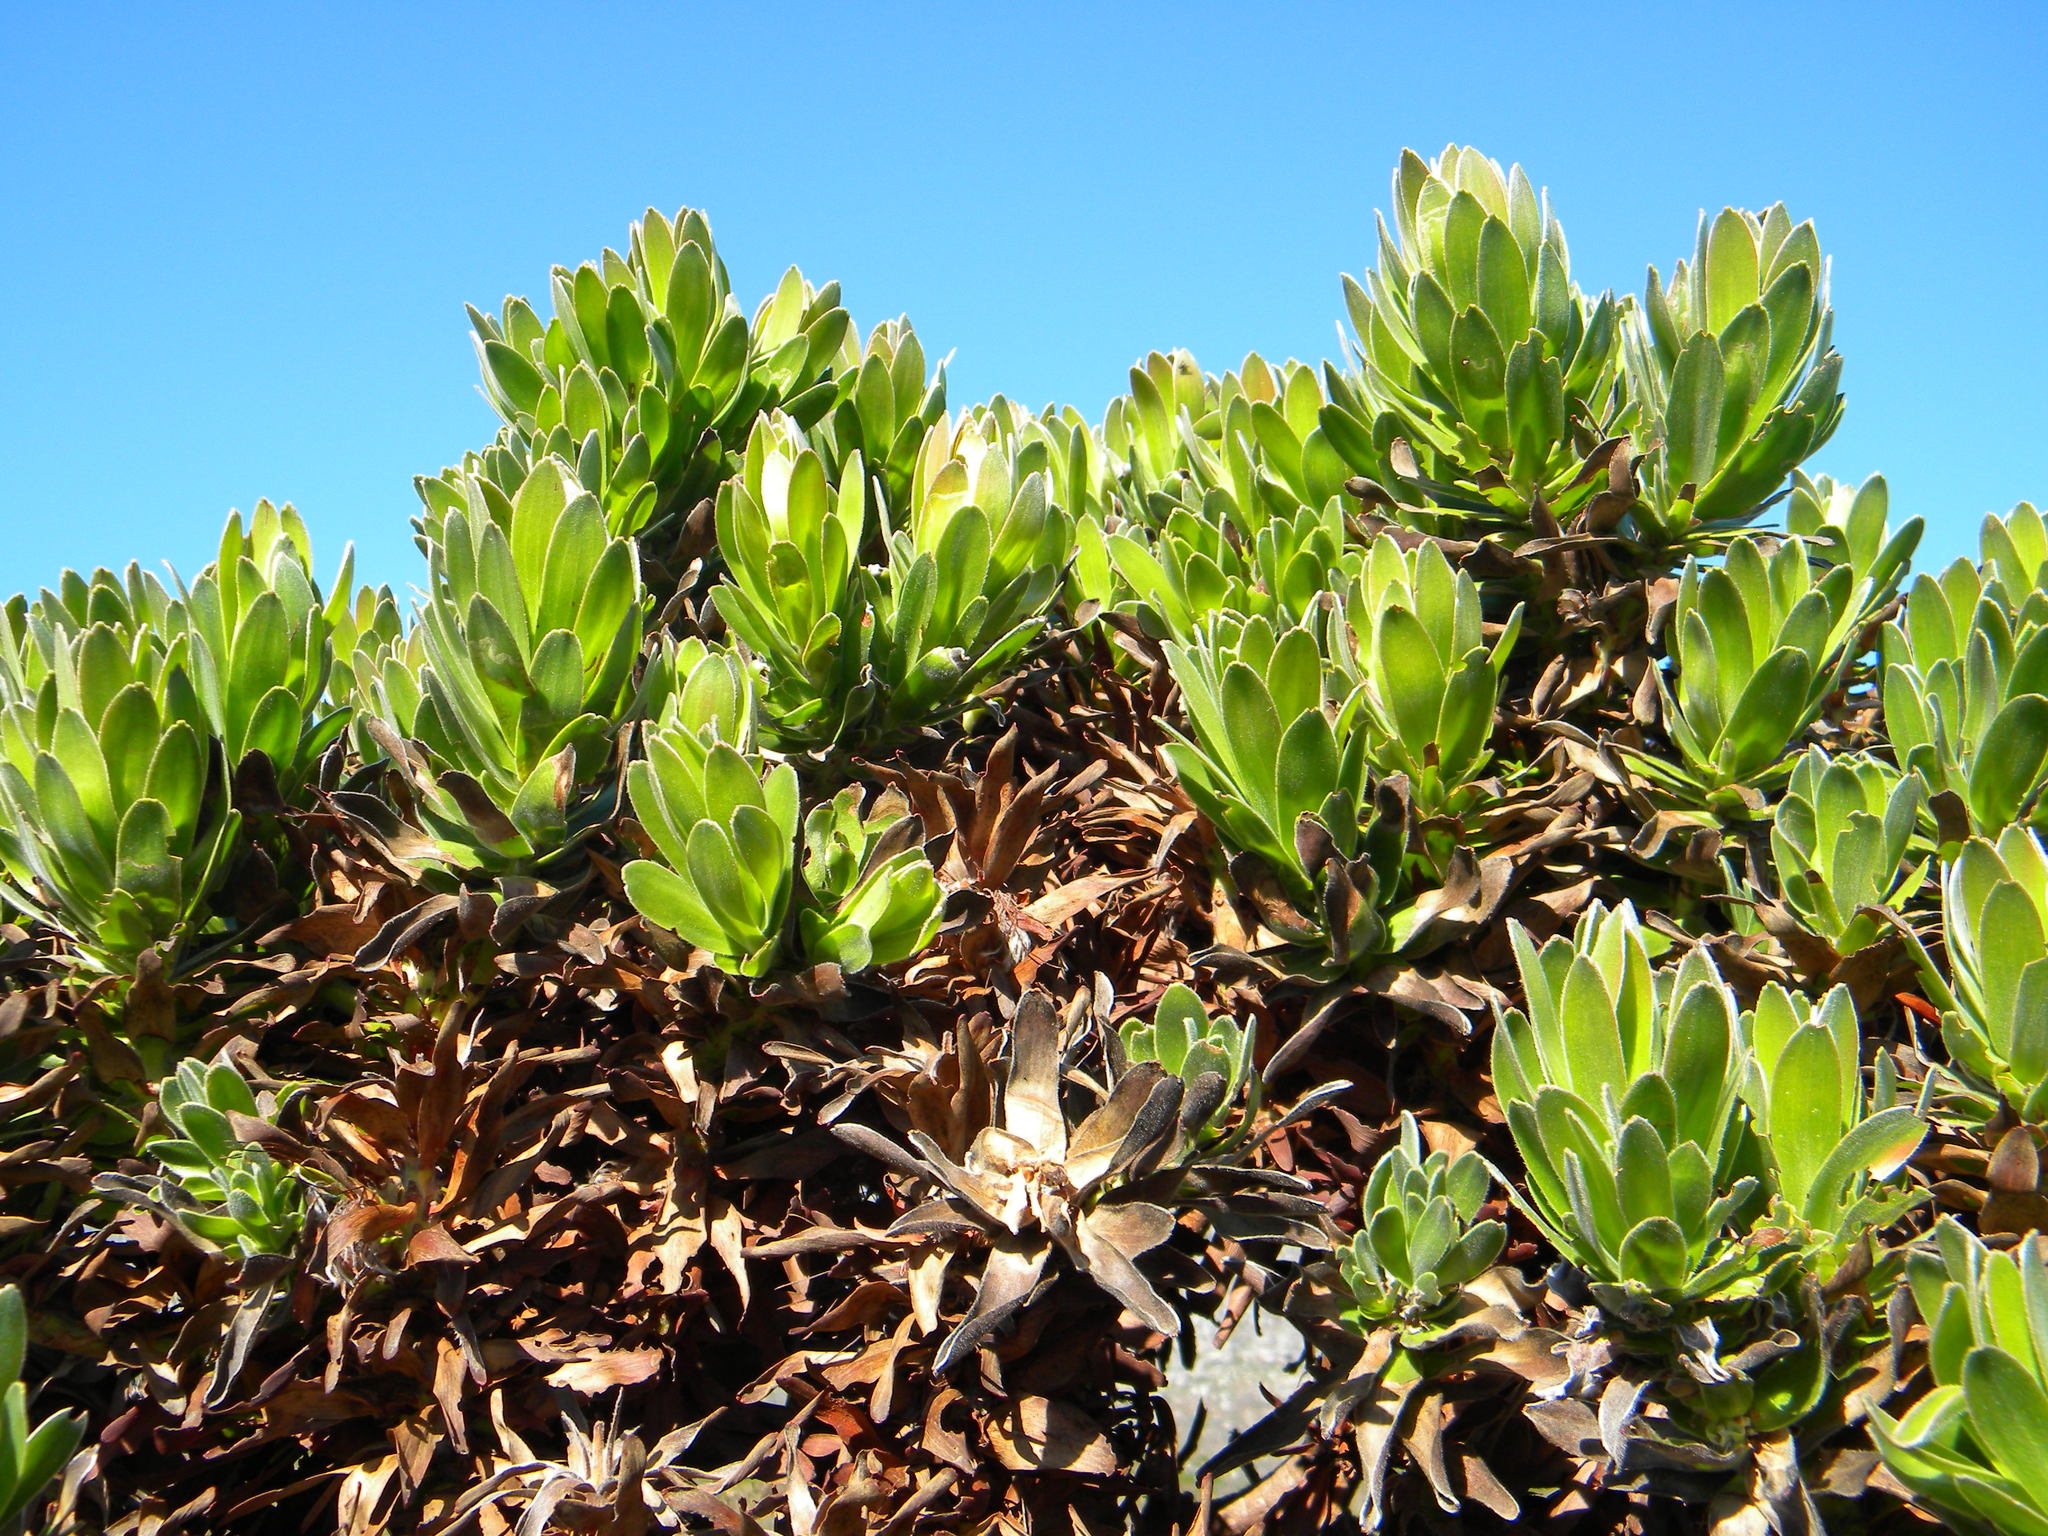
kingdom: Plantae
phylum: Tracheophyta
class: Magnoliopsida
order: Proteales
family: Proteaceae
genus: Leucospermum
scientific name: Leucospermum conocarpodendron
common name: Tree pincushion
